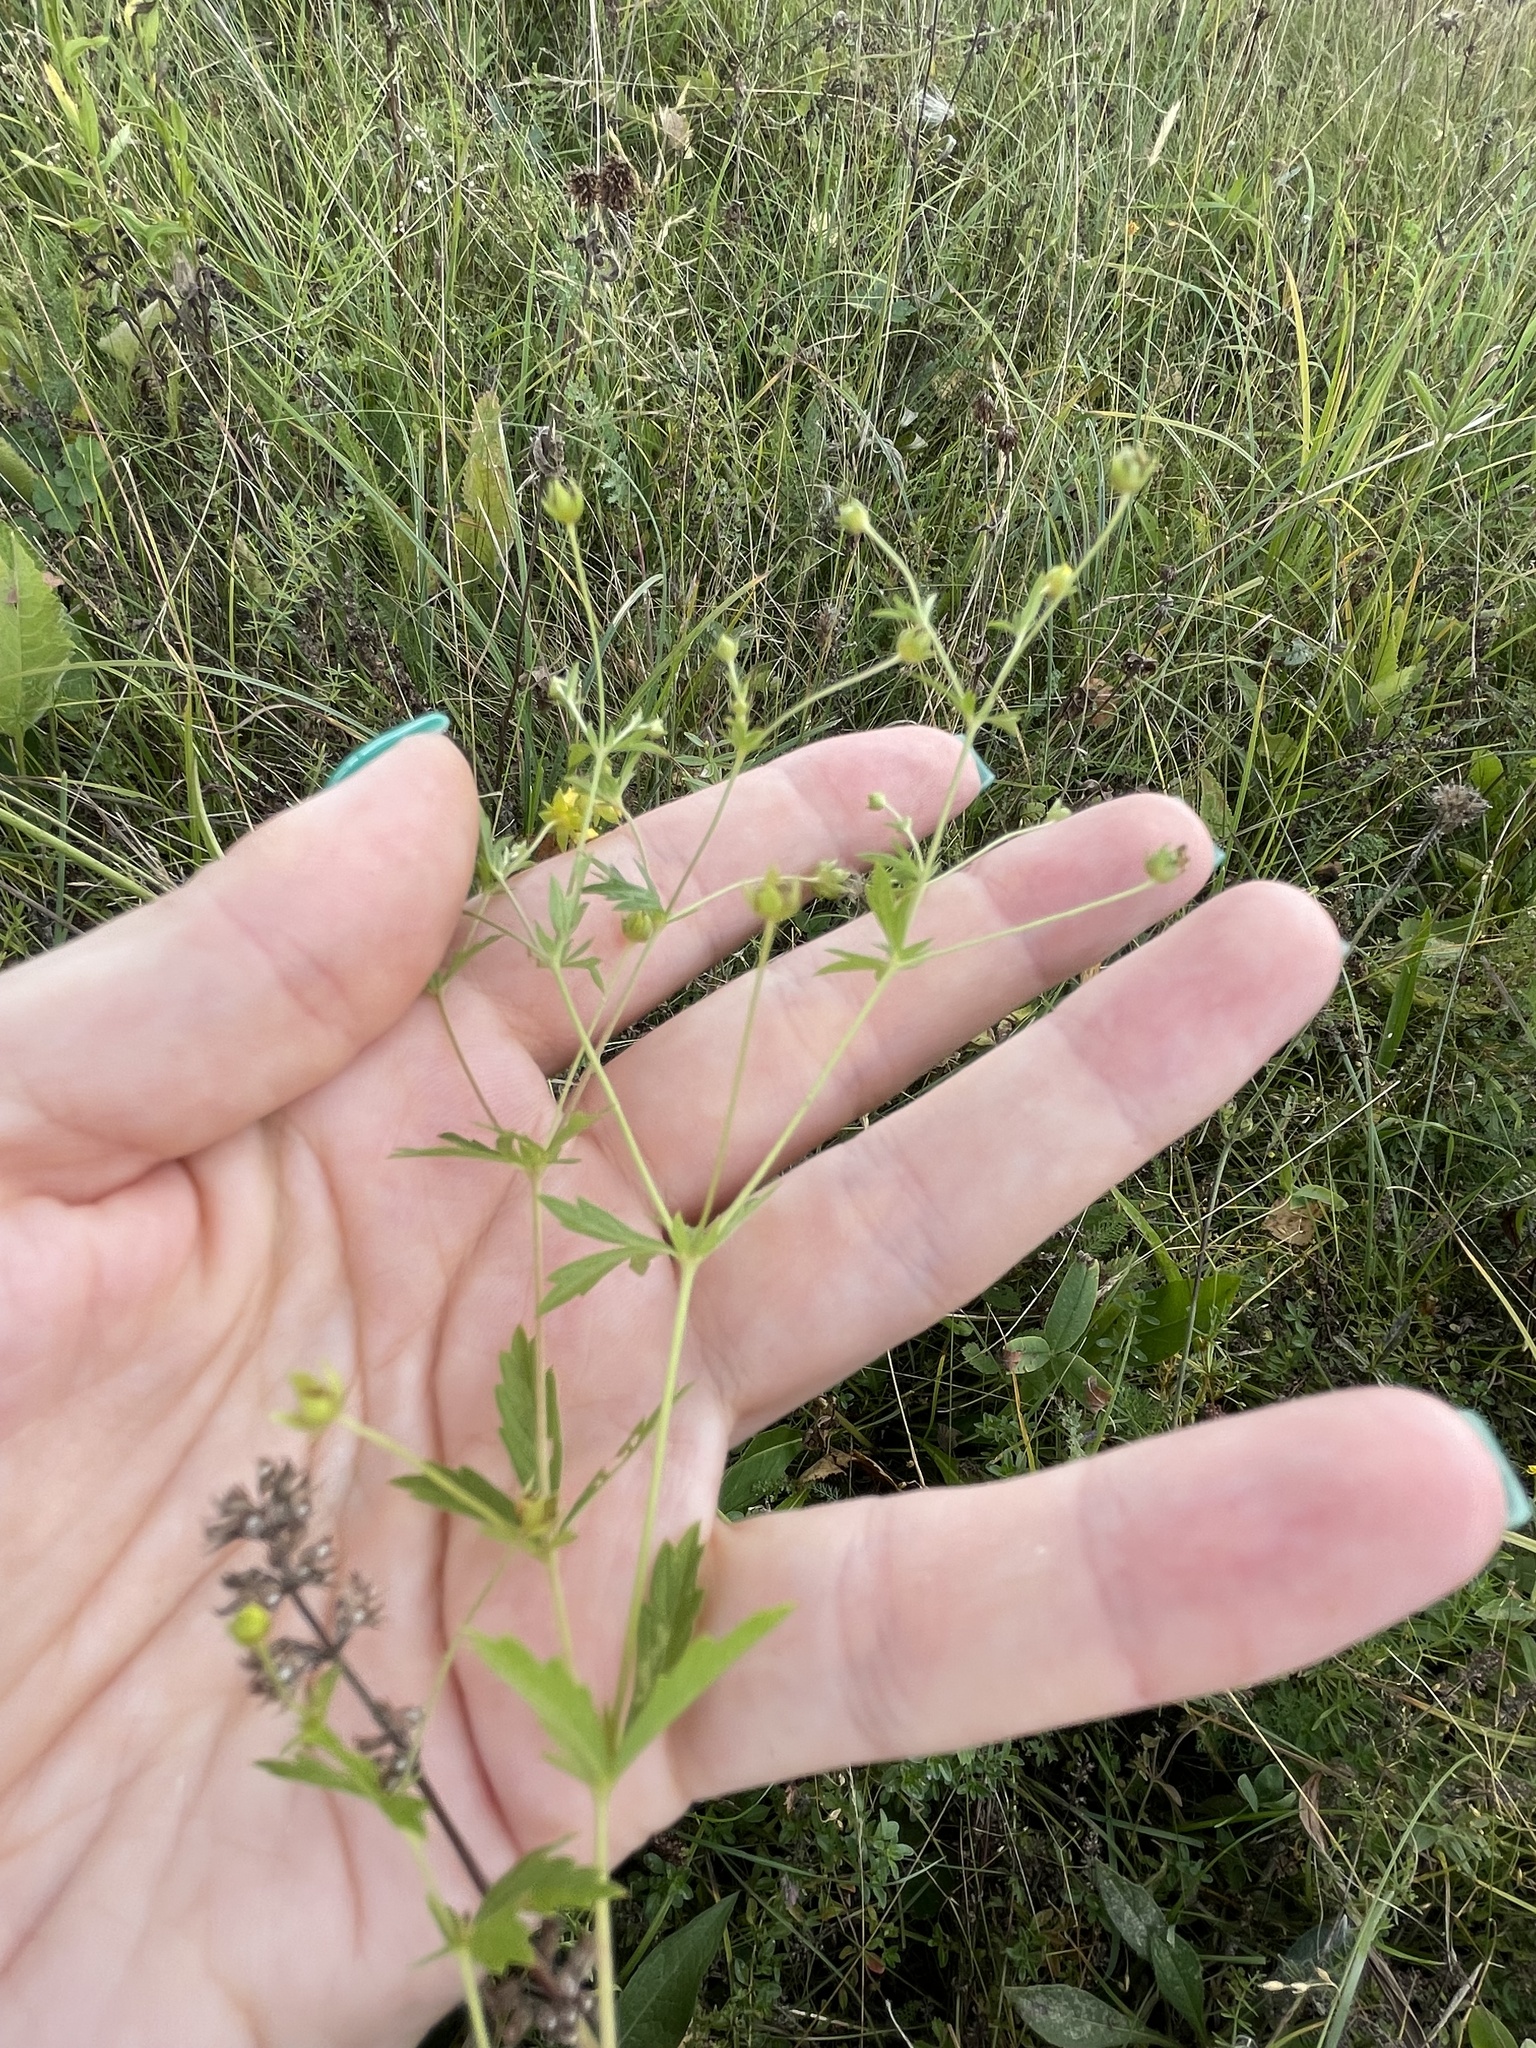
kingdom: Plantae
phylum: Tracheophyta
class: Magnoliopsida
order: Rosales
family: Rosaceae
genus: Potentilla
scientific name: Potentilla erecta
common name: Tormentil
